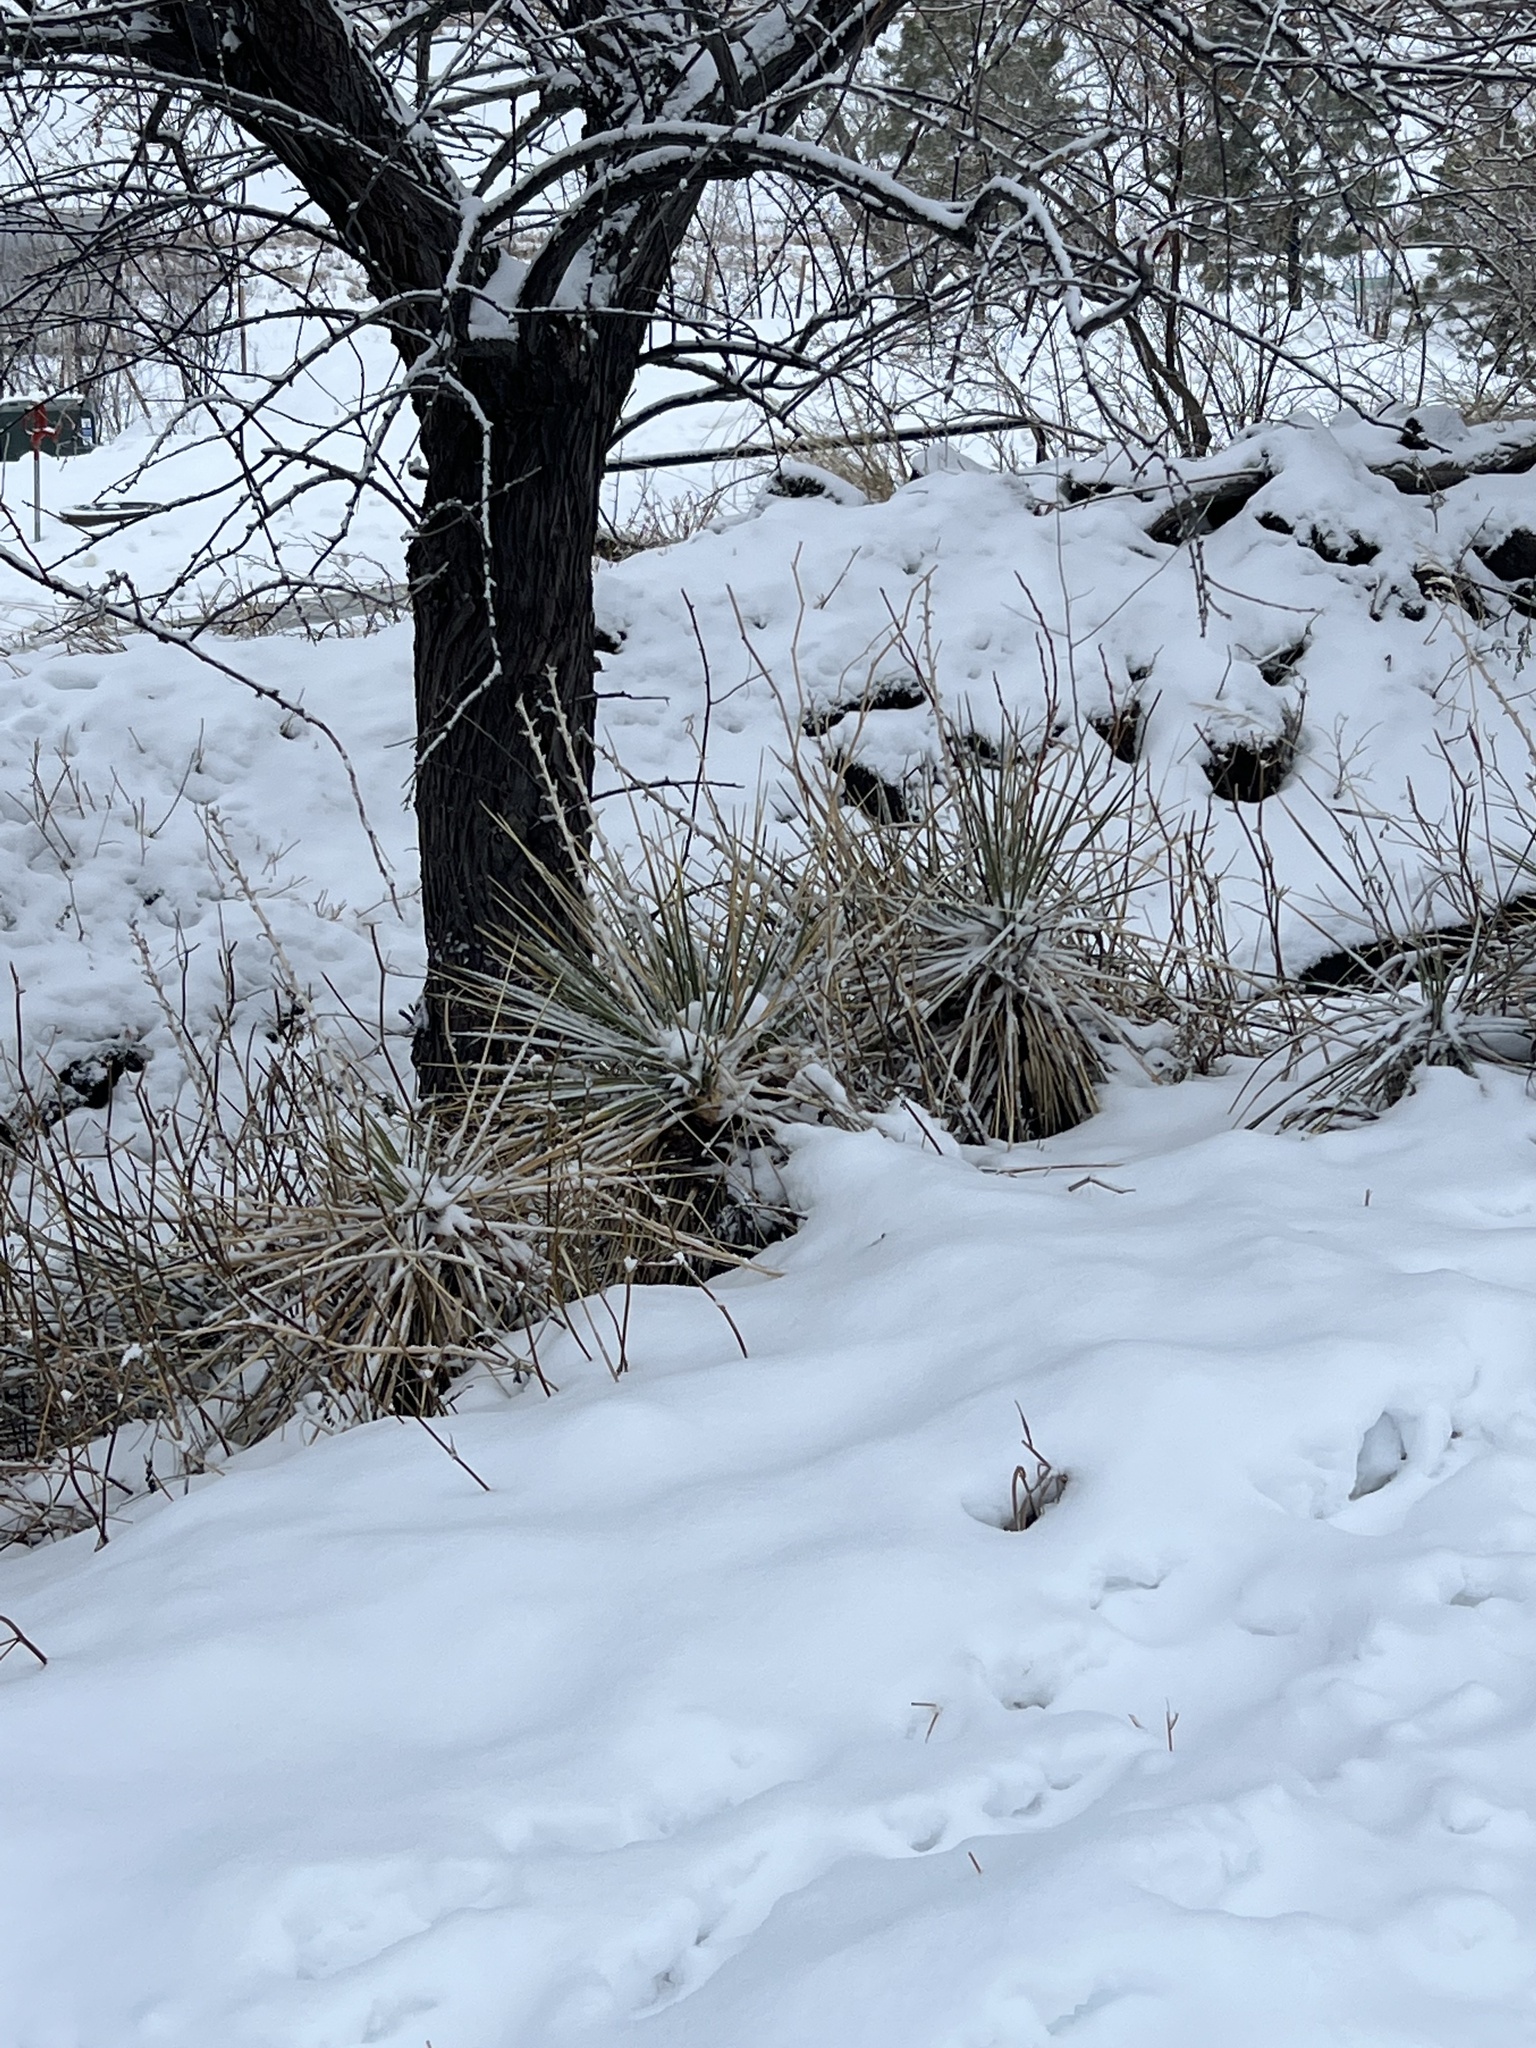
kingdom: Plantae
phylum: Tracheophyta
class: Liliopsida
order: Asparagales
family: Asparagaceae
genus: Yucca
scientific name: Yucca glauca
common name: Great plains yucca
